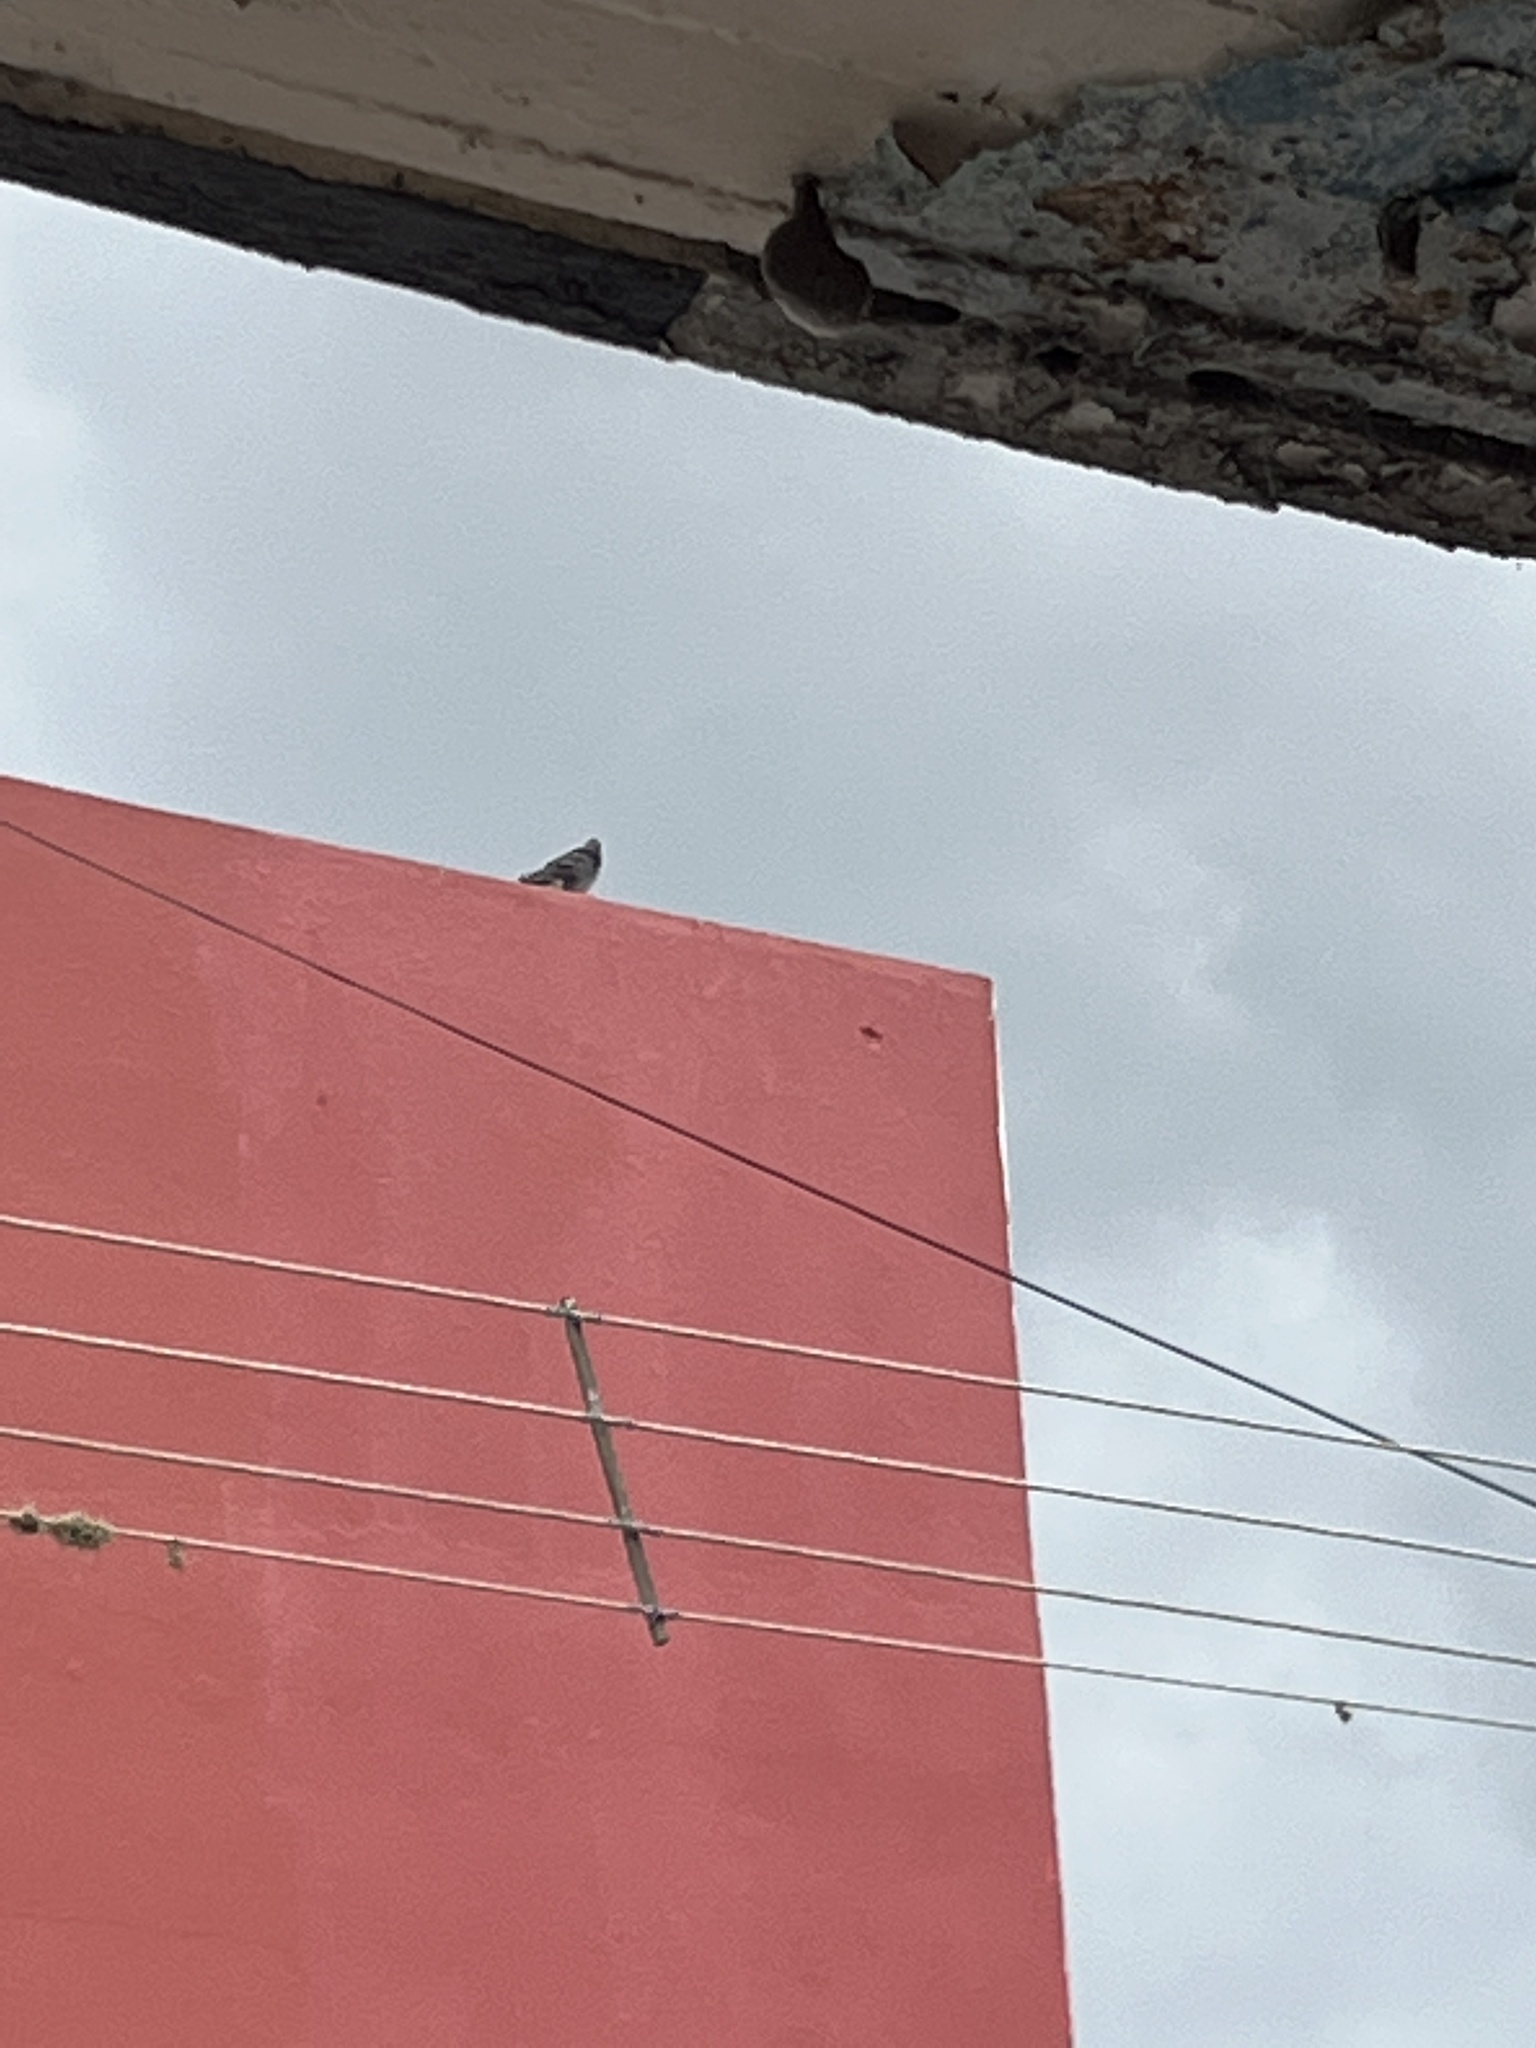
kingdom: Animalia
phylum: Chordata
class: Aves
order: Columbiformes
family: Columbidae
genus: Columba
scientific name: Columba livia
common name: Rock pigeon
